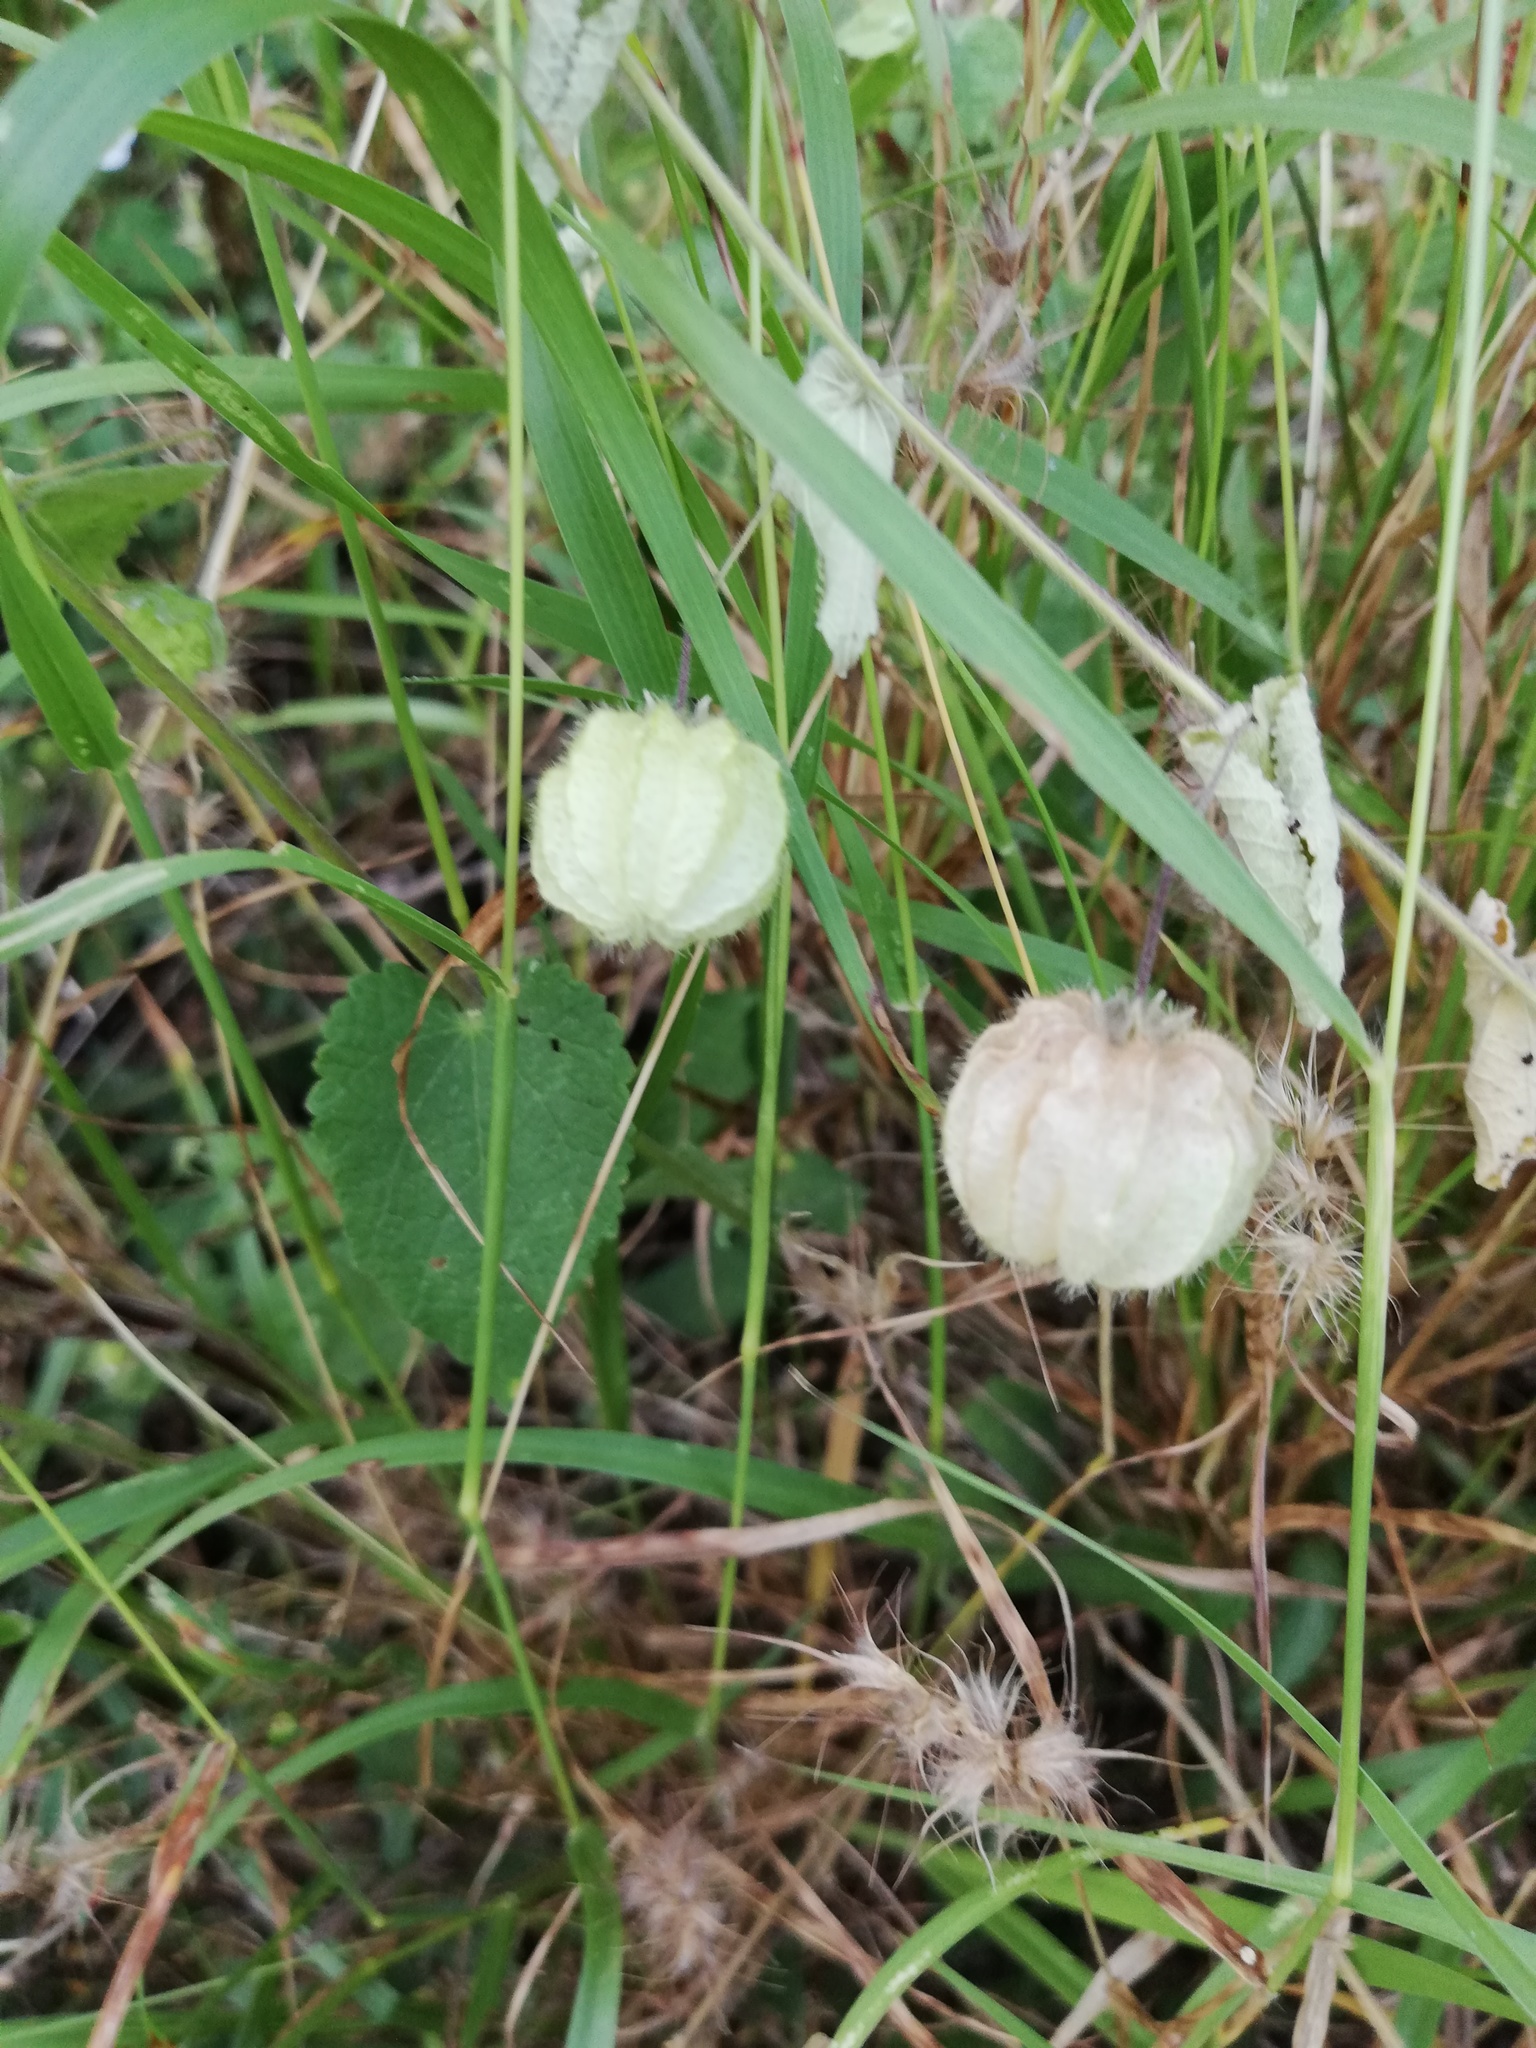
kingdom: Plantae
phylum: Tracheophyta
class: Magnoliopsida
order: Malvales
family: Malvaceae
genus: Herissantia
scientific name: Herissantia crispa
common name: Bladdermallow
